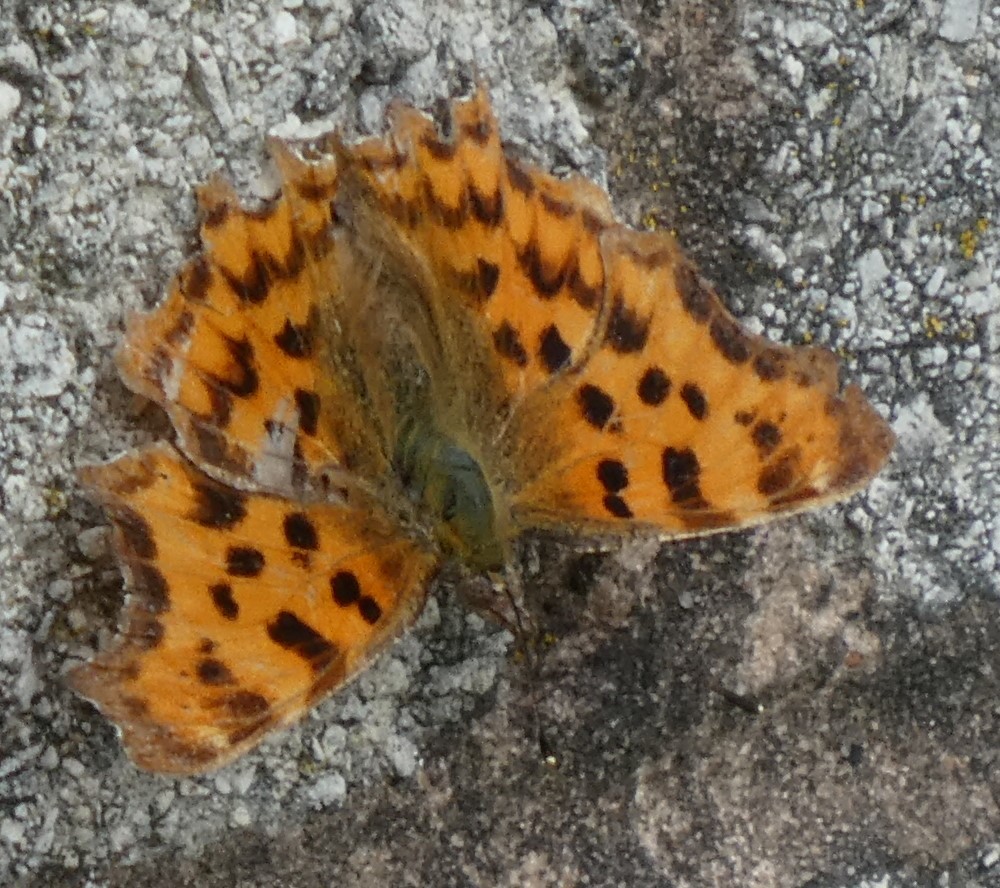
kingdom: Animalia
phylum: Arthropoda
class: Insecta
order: Lepidoptera
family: Nymphalidae
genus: Polygonia
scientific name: Polygonia c-album
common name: Comma
